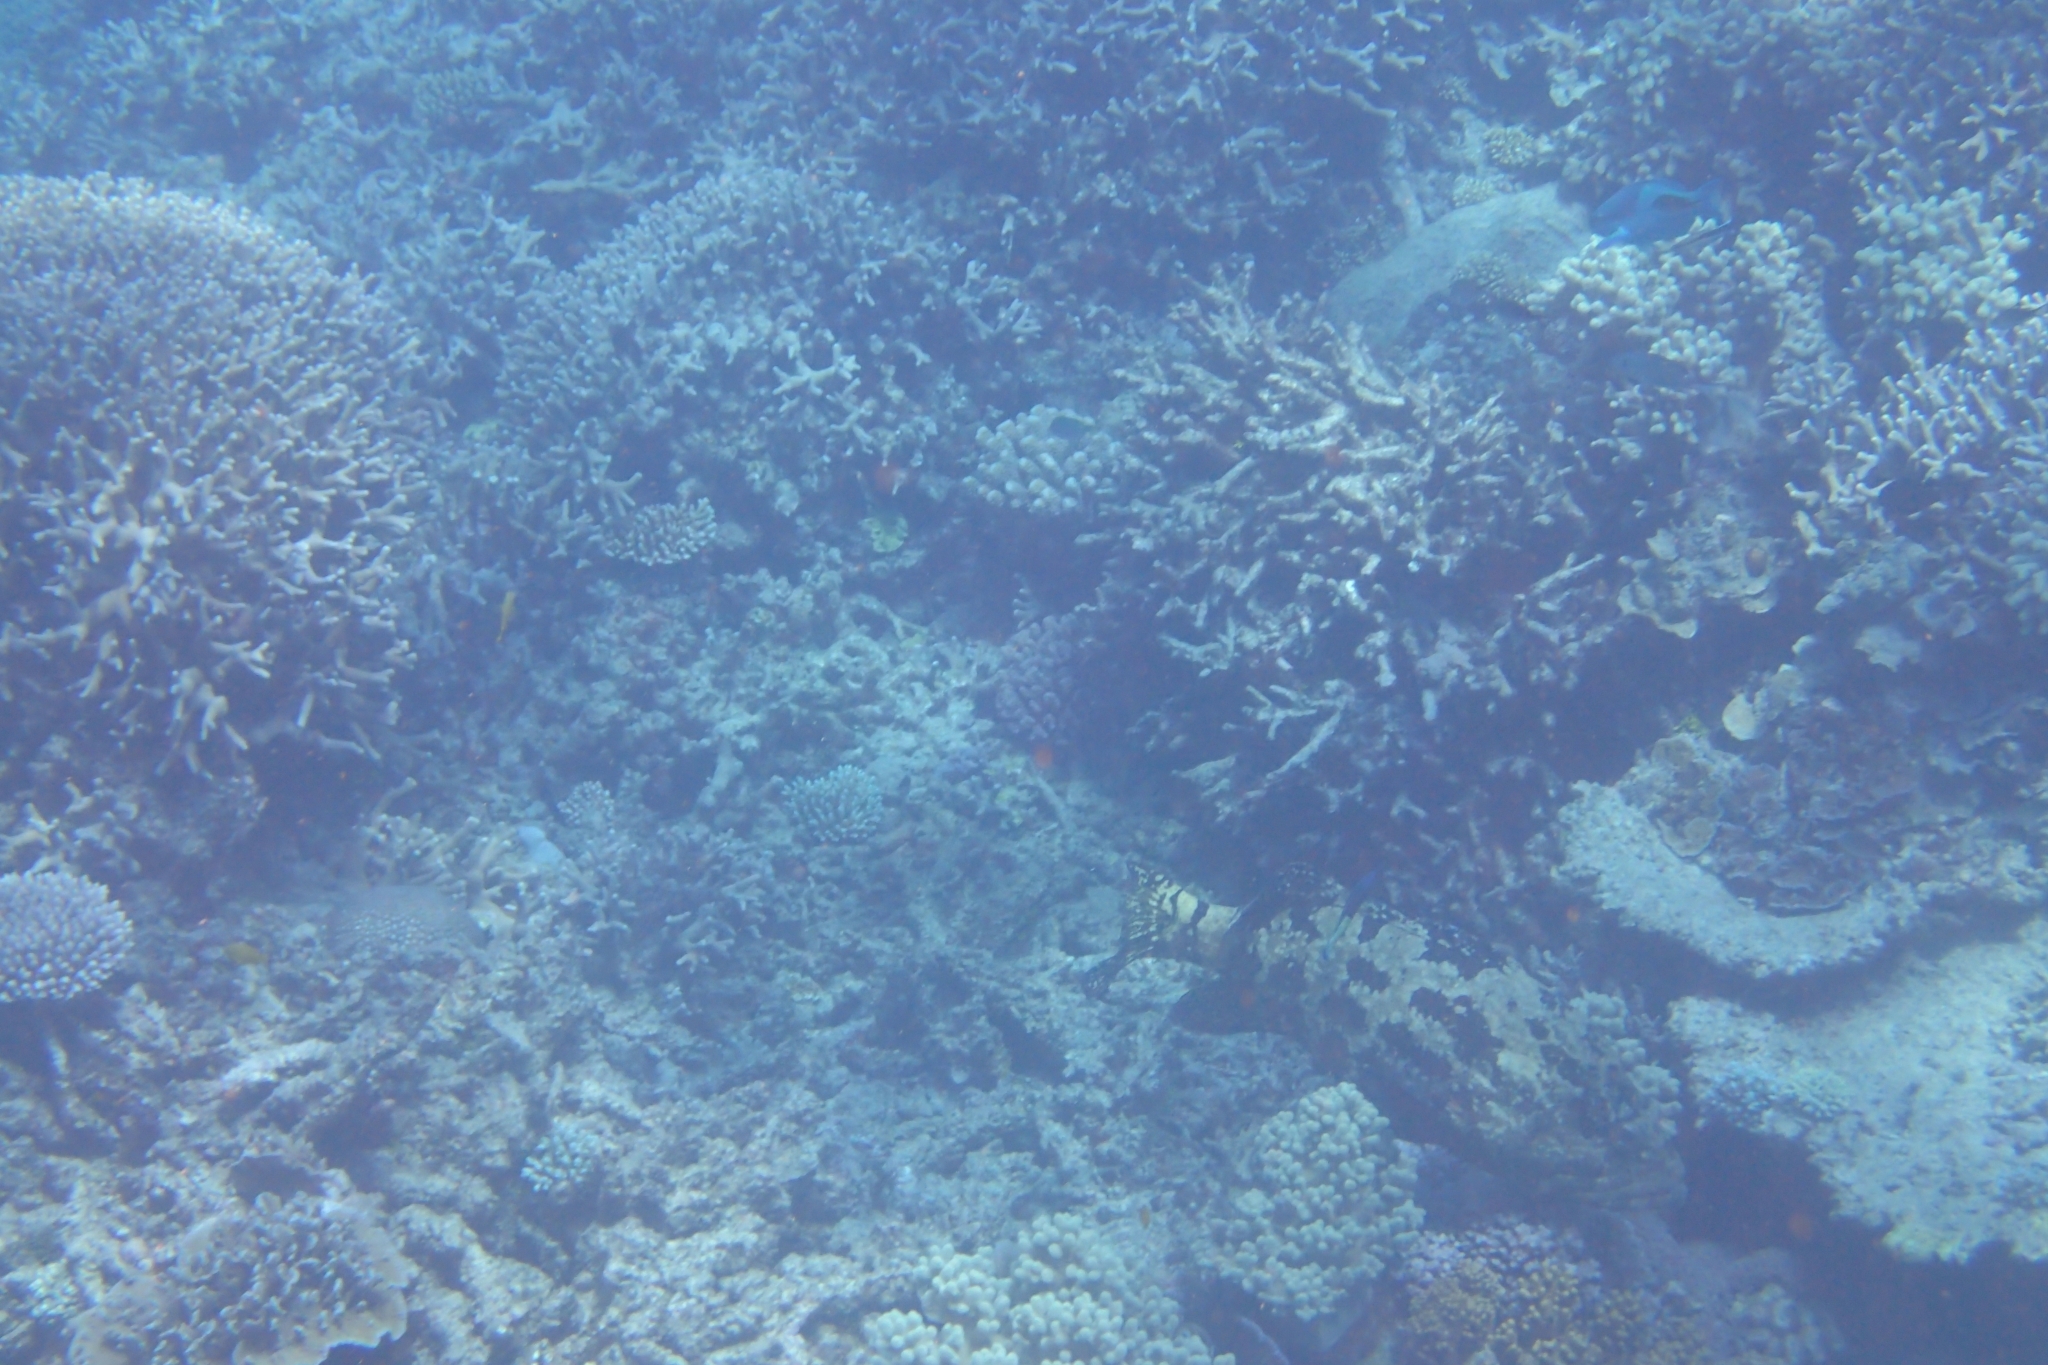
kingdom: Animalia
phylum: Chordata
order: Perciformes
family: Serranidae
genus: Epinephelus
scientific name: Epinephelus fuscoguttatus
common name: Brown-marbled grouper
